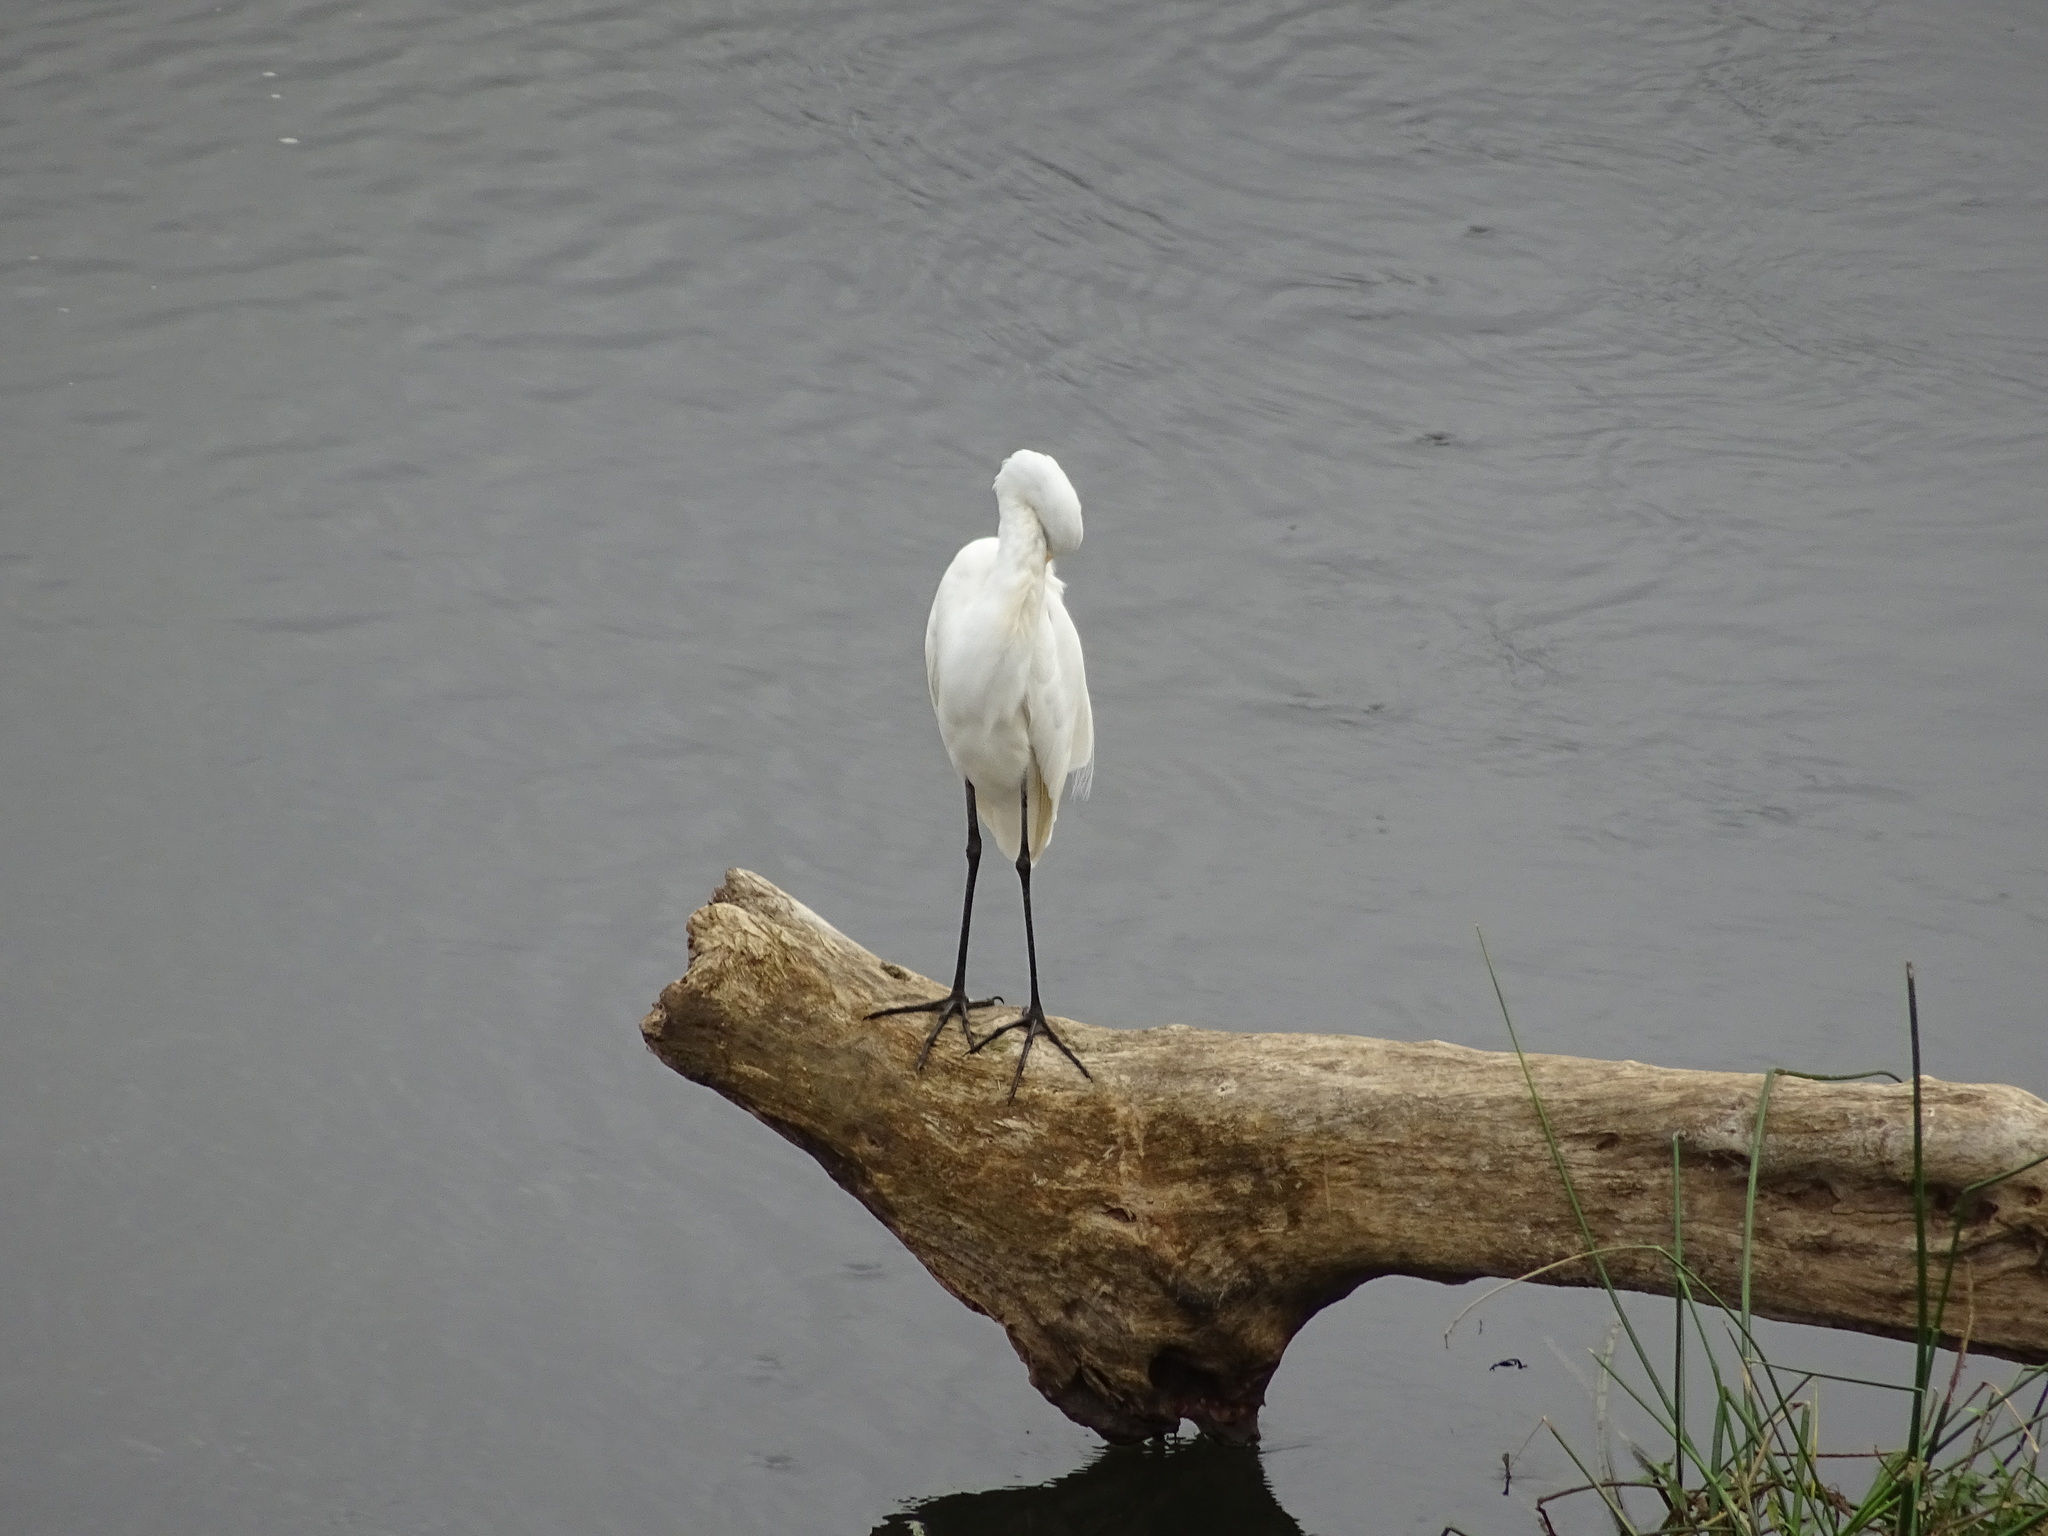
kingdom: Animalia
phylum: Chordata
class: Aves
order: Pelecaniformes
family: Ardeidae
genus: Ardea
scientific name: Ardea alba
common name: Great egret
